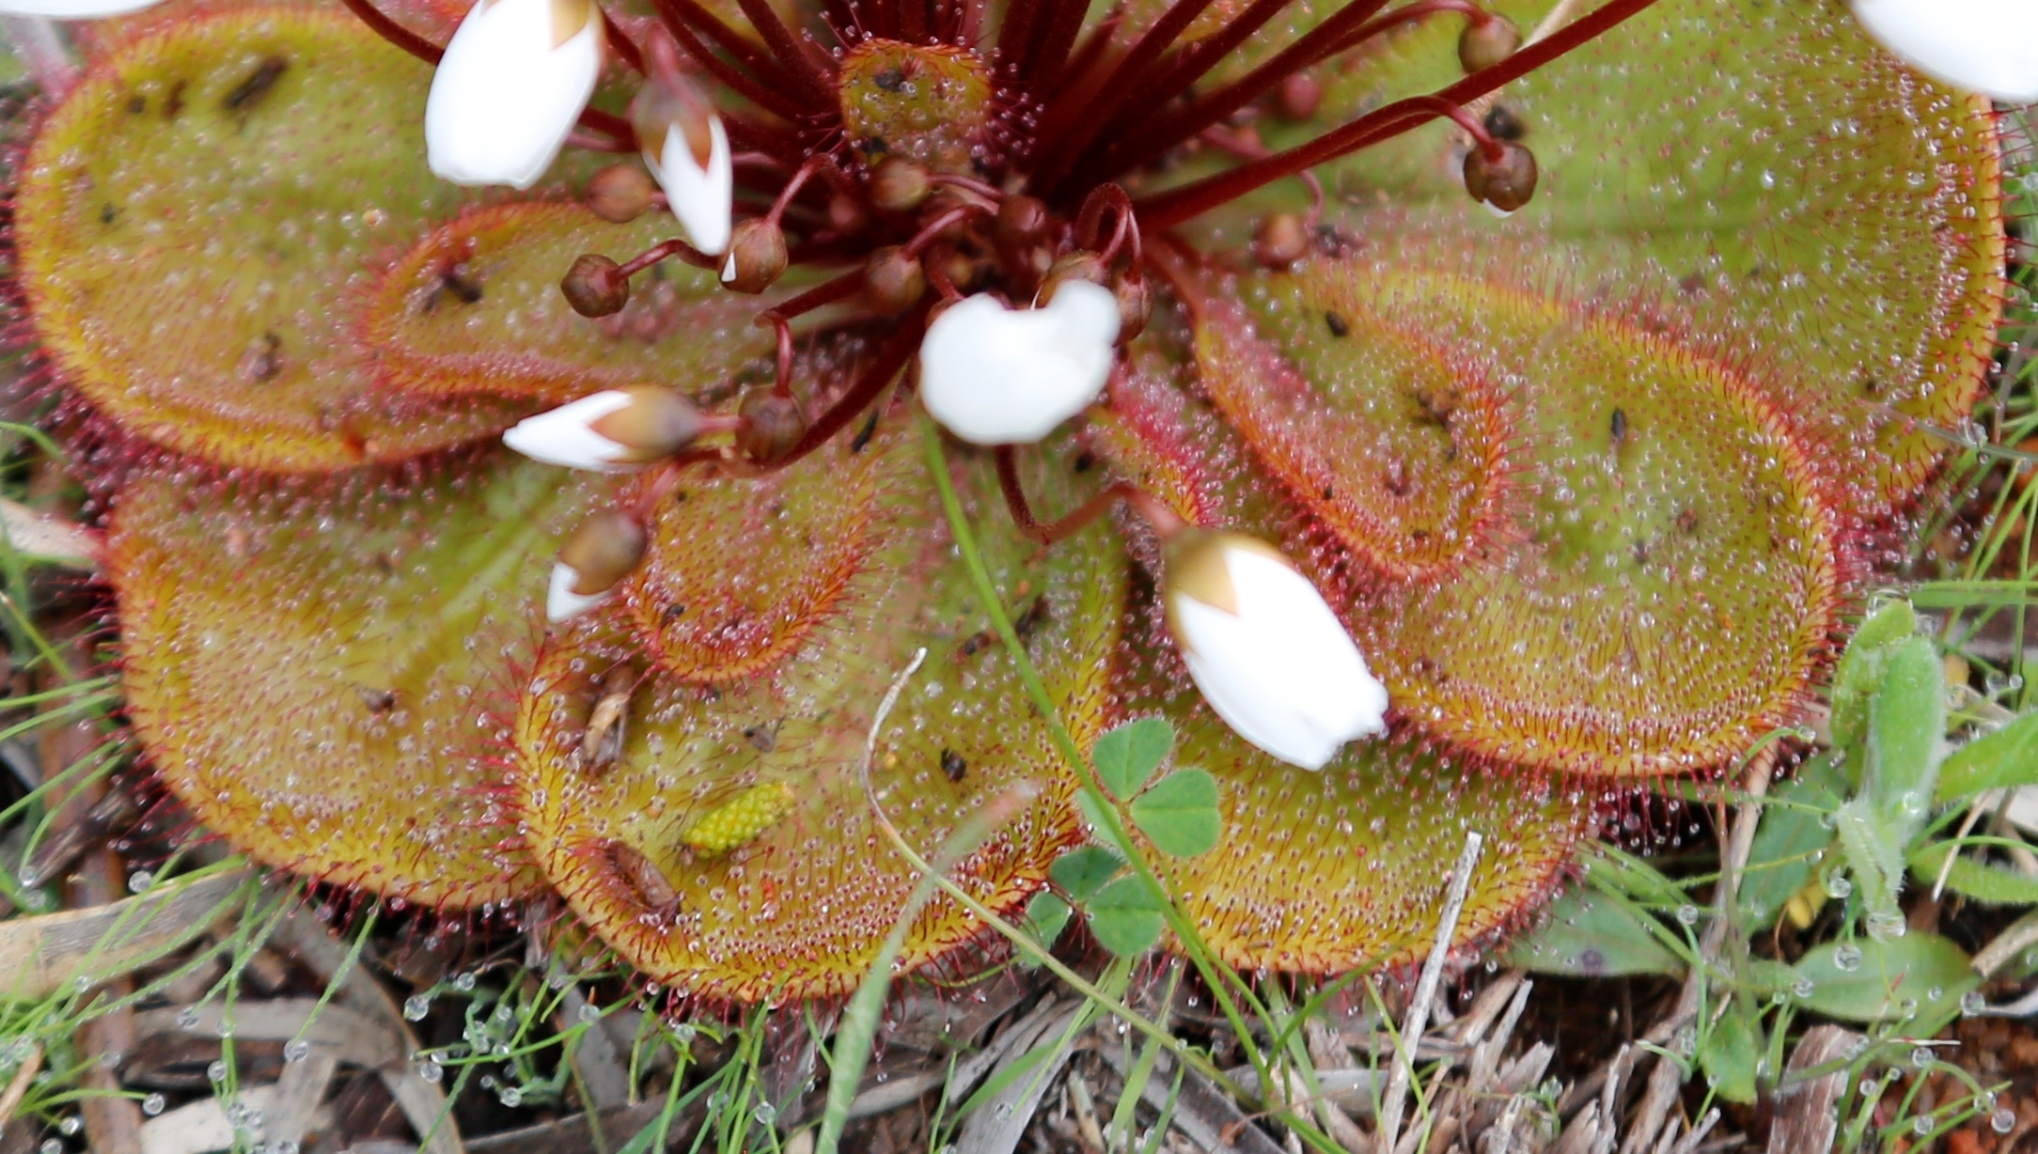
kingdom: Plantae
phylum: Tracheophyta
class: Magnoliopsida
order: Caryophyllales
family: Droseraceae
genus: Drosera
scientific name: Drosera macrophylla
